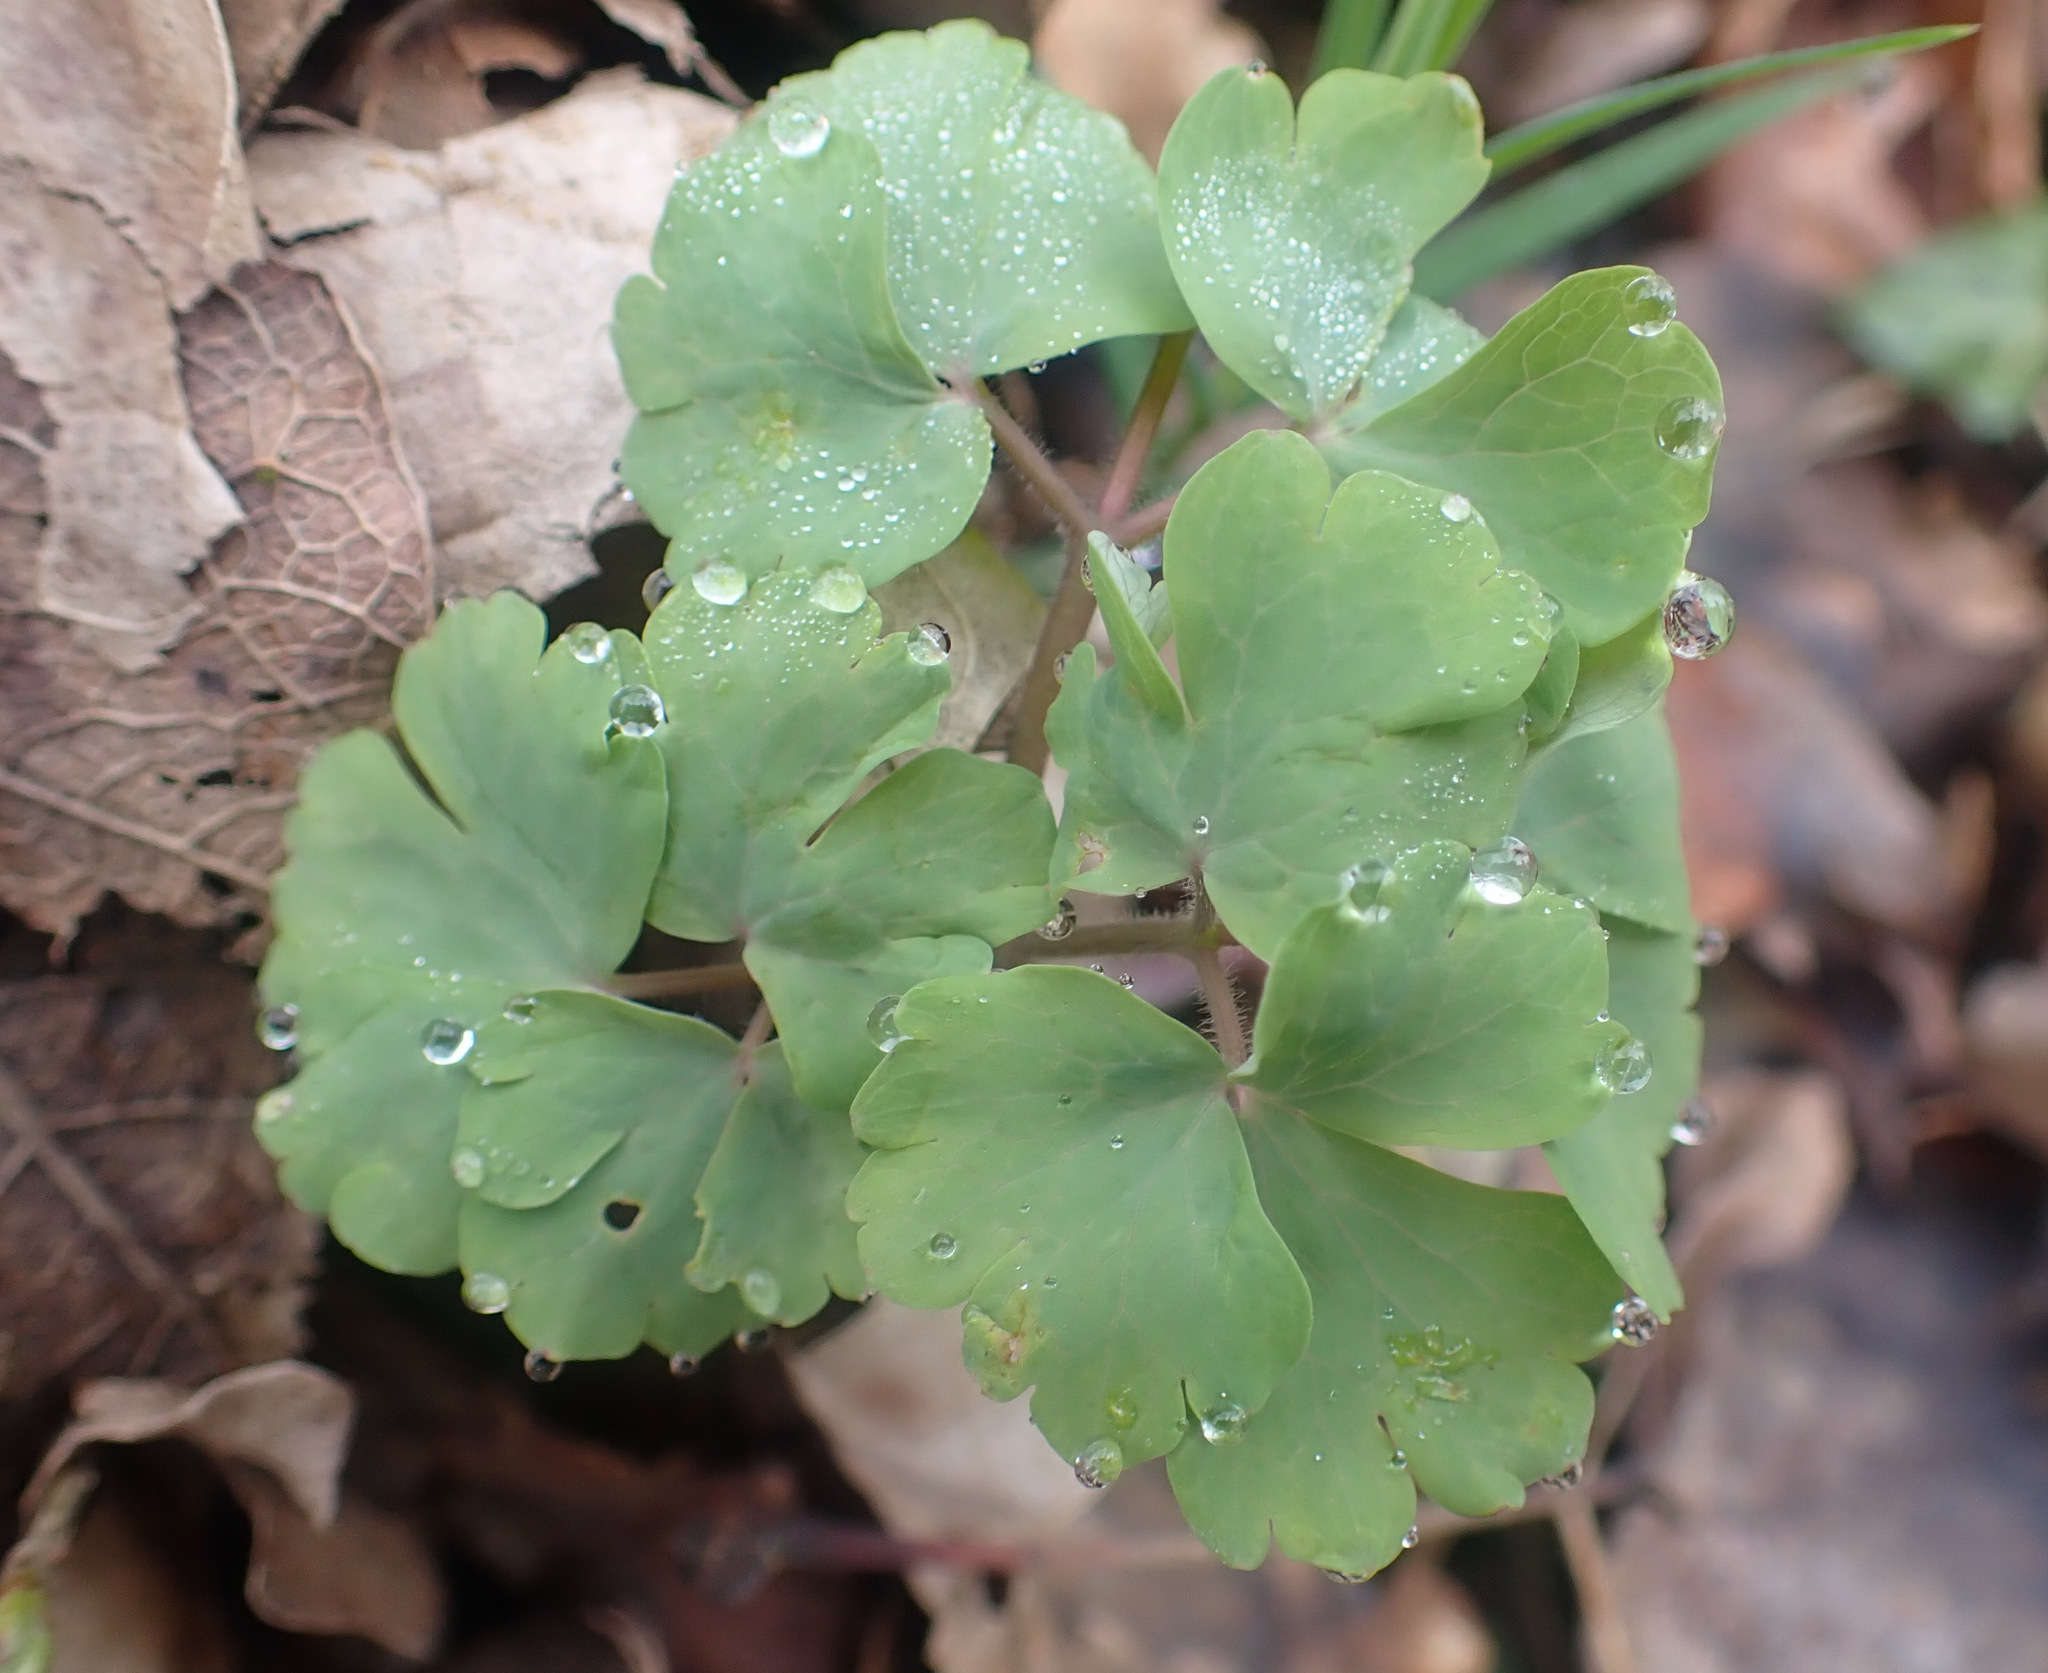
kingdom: Plantae
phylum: Tracheophyta
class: Magnoliopsida
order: Ranunculales
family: Ranunculaceae
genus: Aquilegia
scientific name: Aquilegia vulgaris
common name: Columbine
